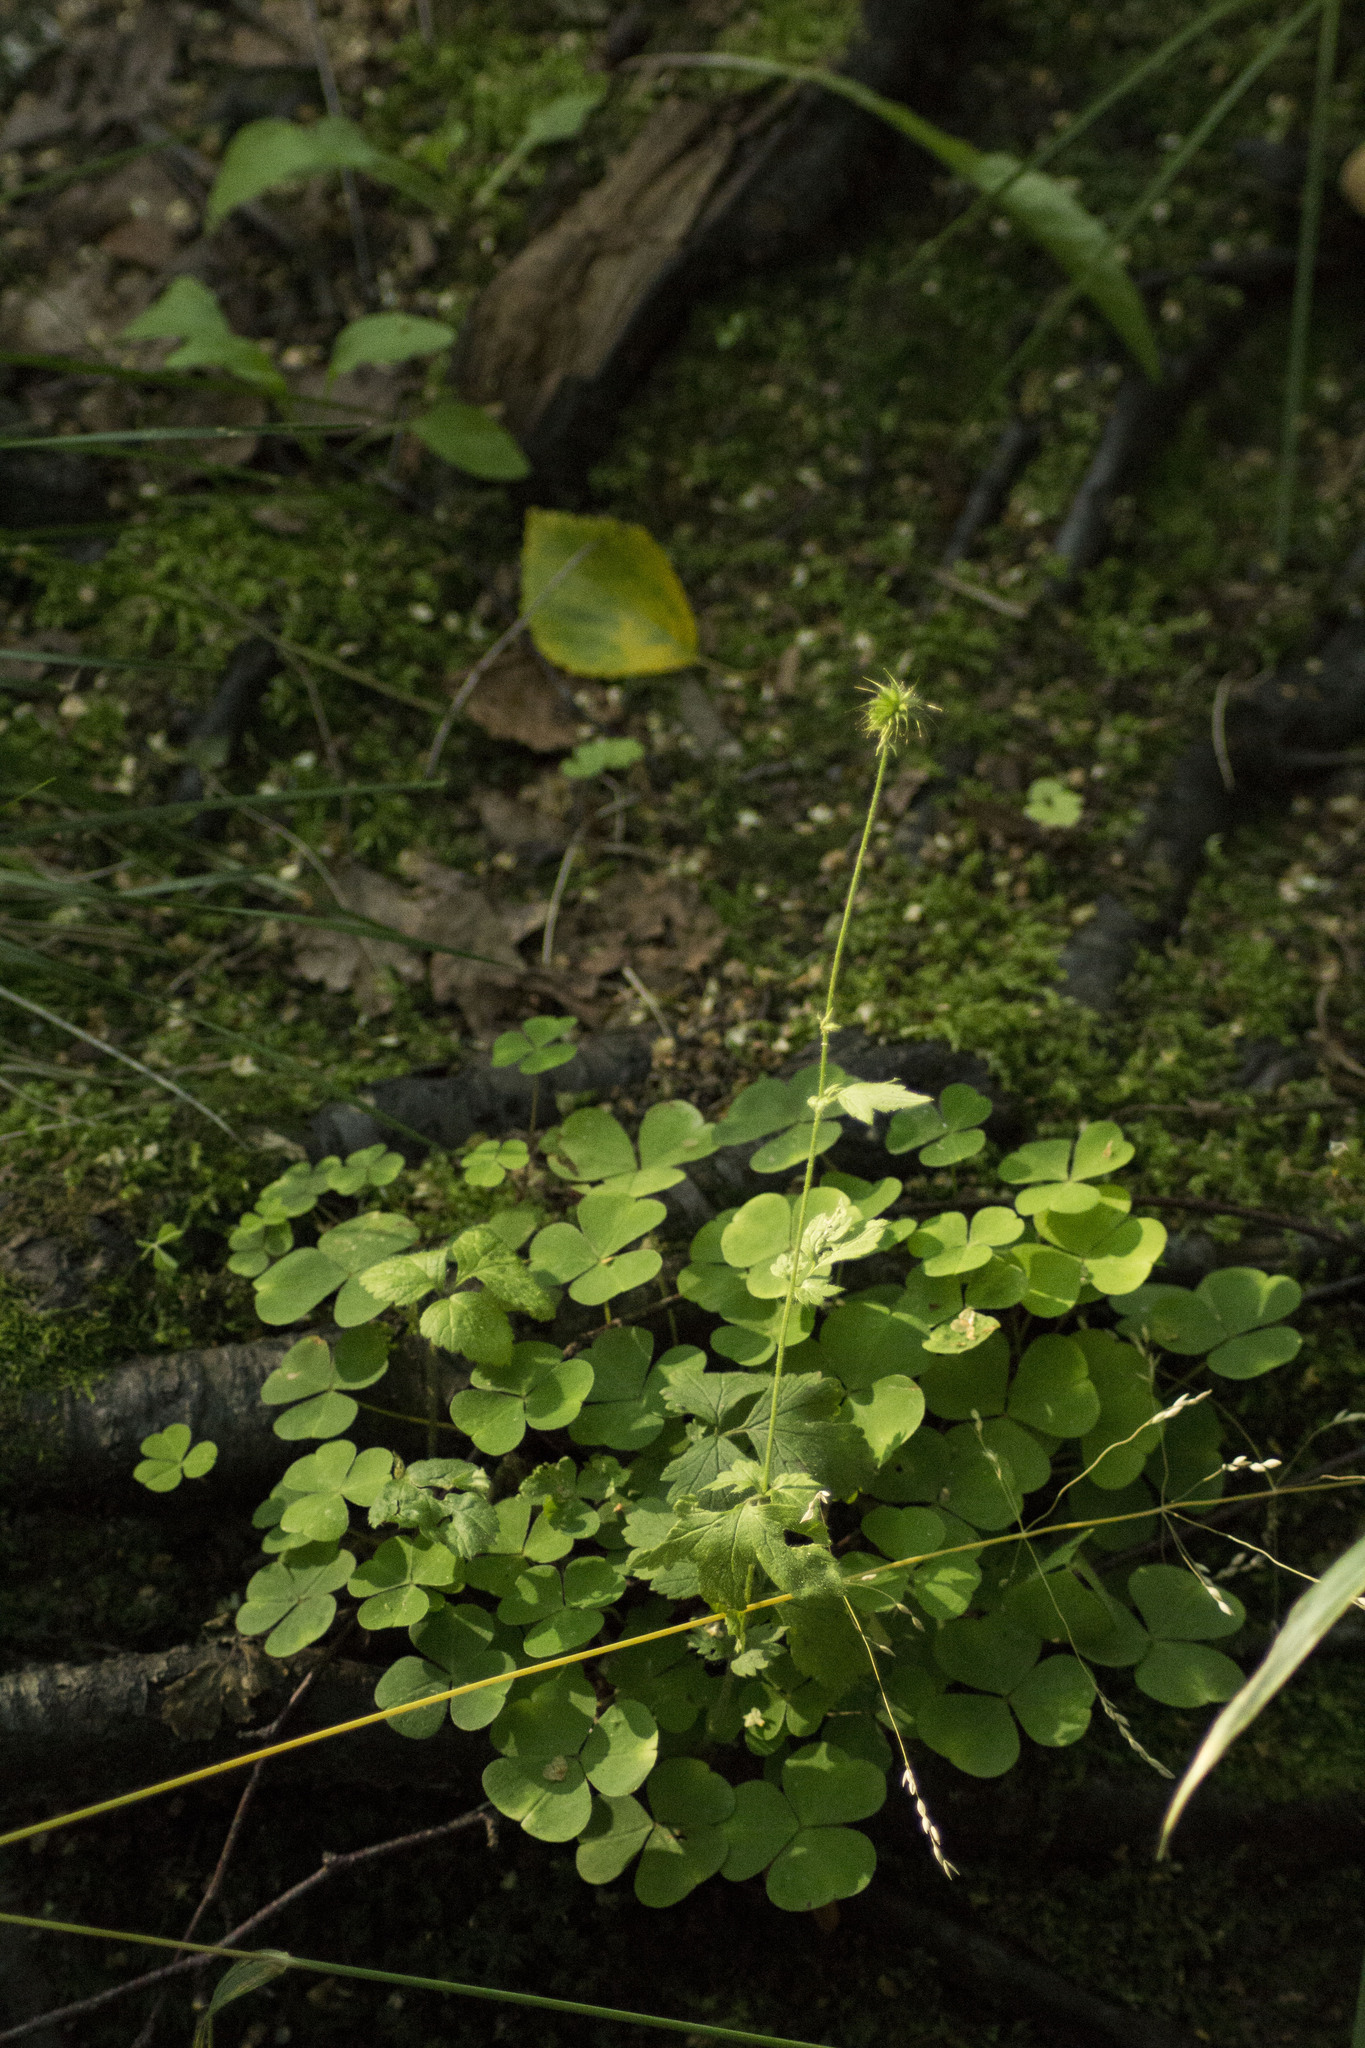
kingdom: Plantae
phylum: Tracheophyta
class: Magnoliopsida
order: Rosales
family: Rosaceae
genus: Geum
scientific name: Geum urbanum
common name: Wood avens
